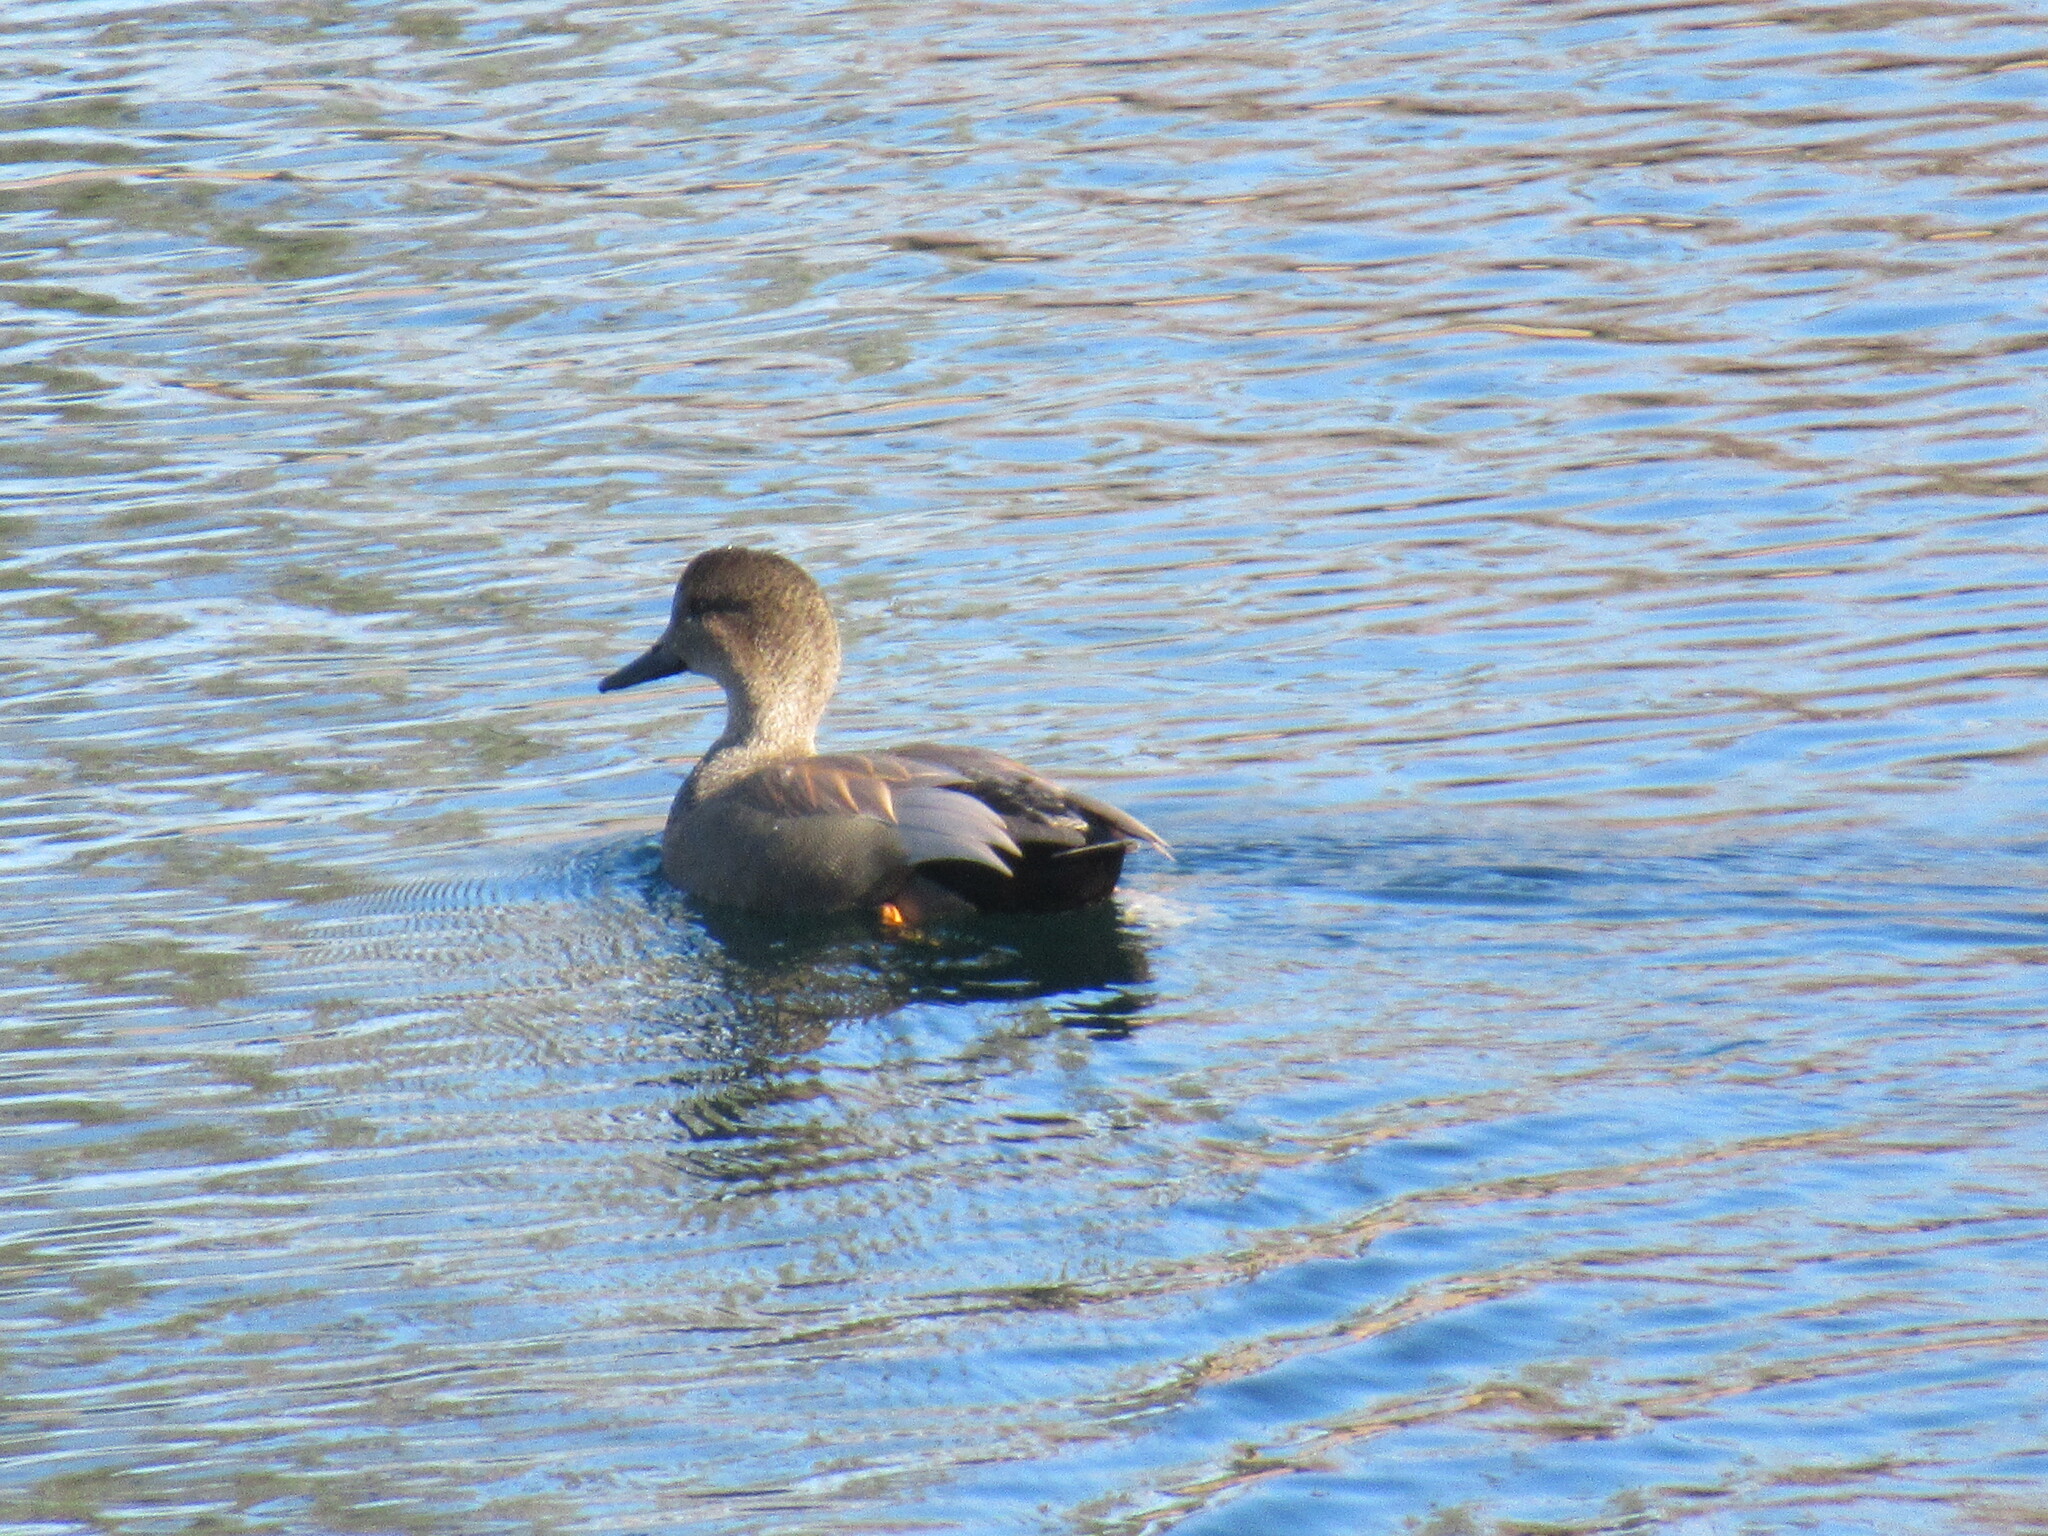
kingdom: Animalia
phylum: Chordata
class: Aves
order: Anseriformes
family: Anatidae
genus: Mareca
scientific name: Mareca strepera
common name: Gadwall
